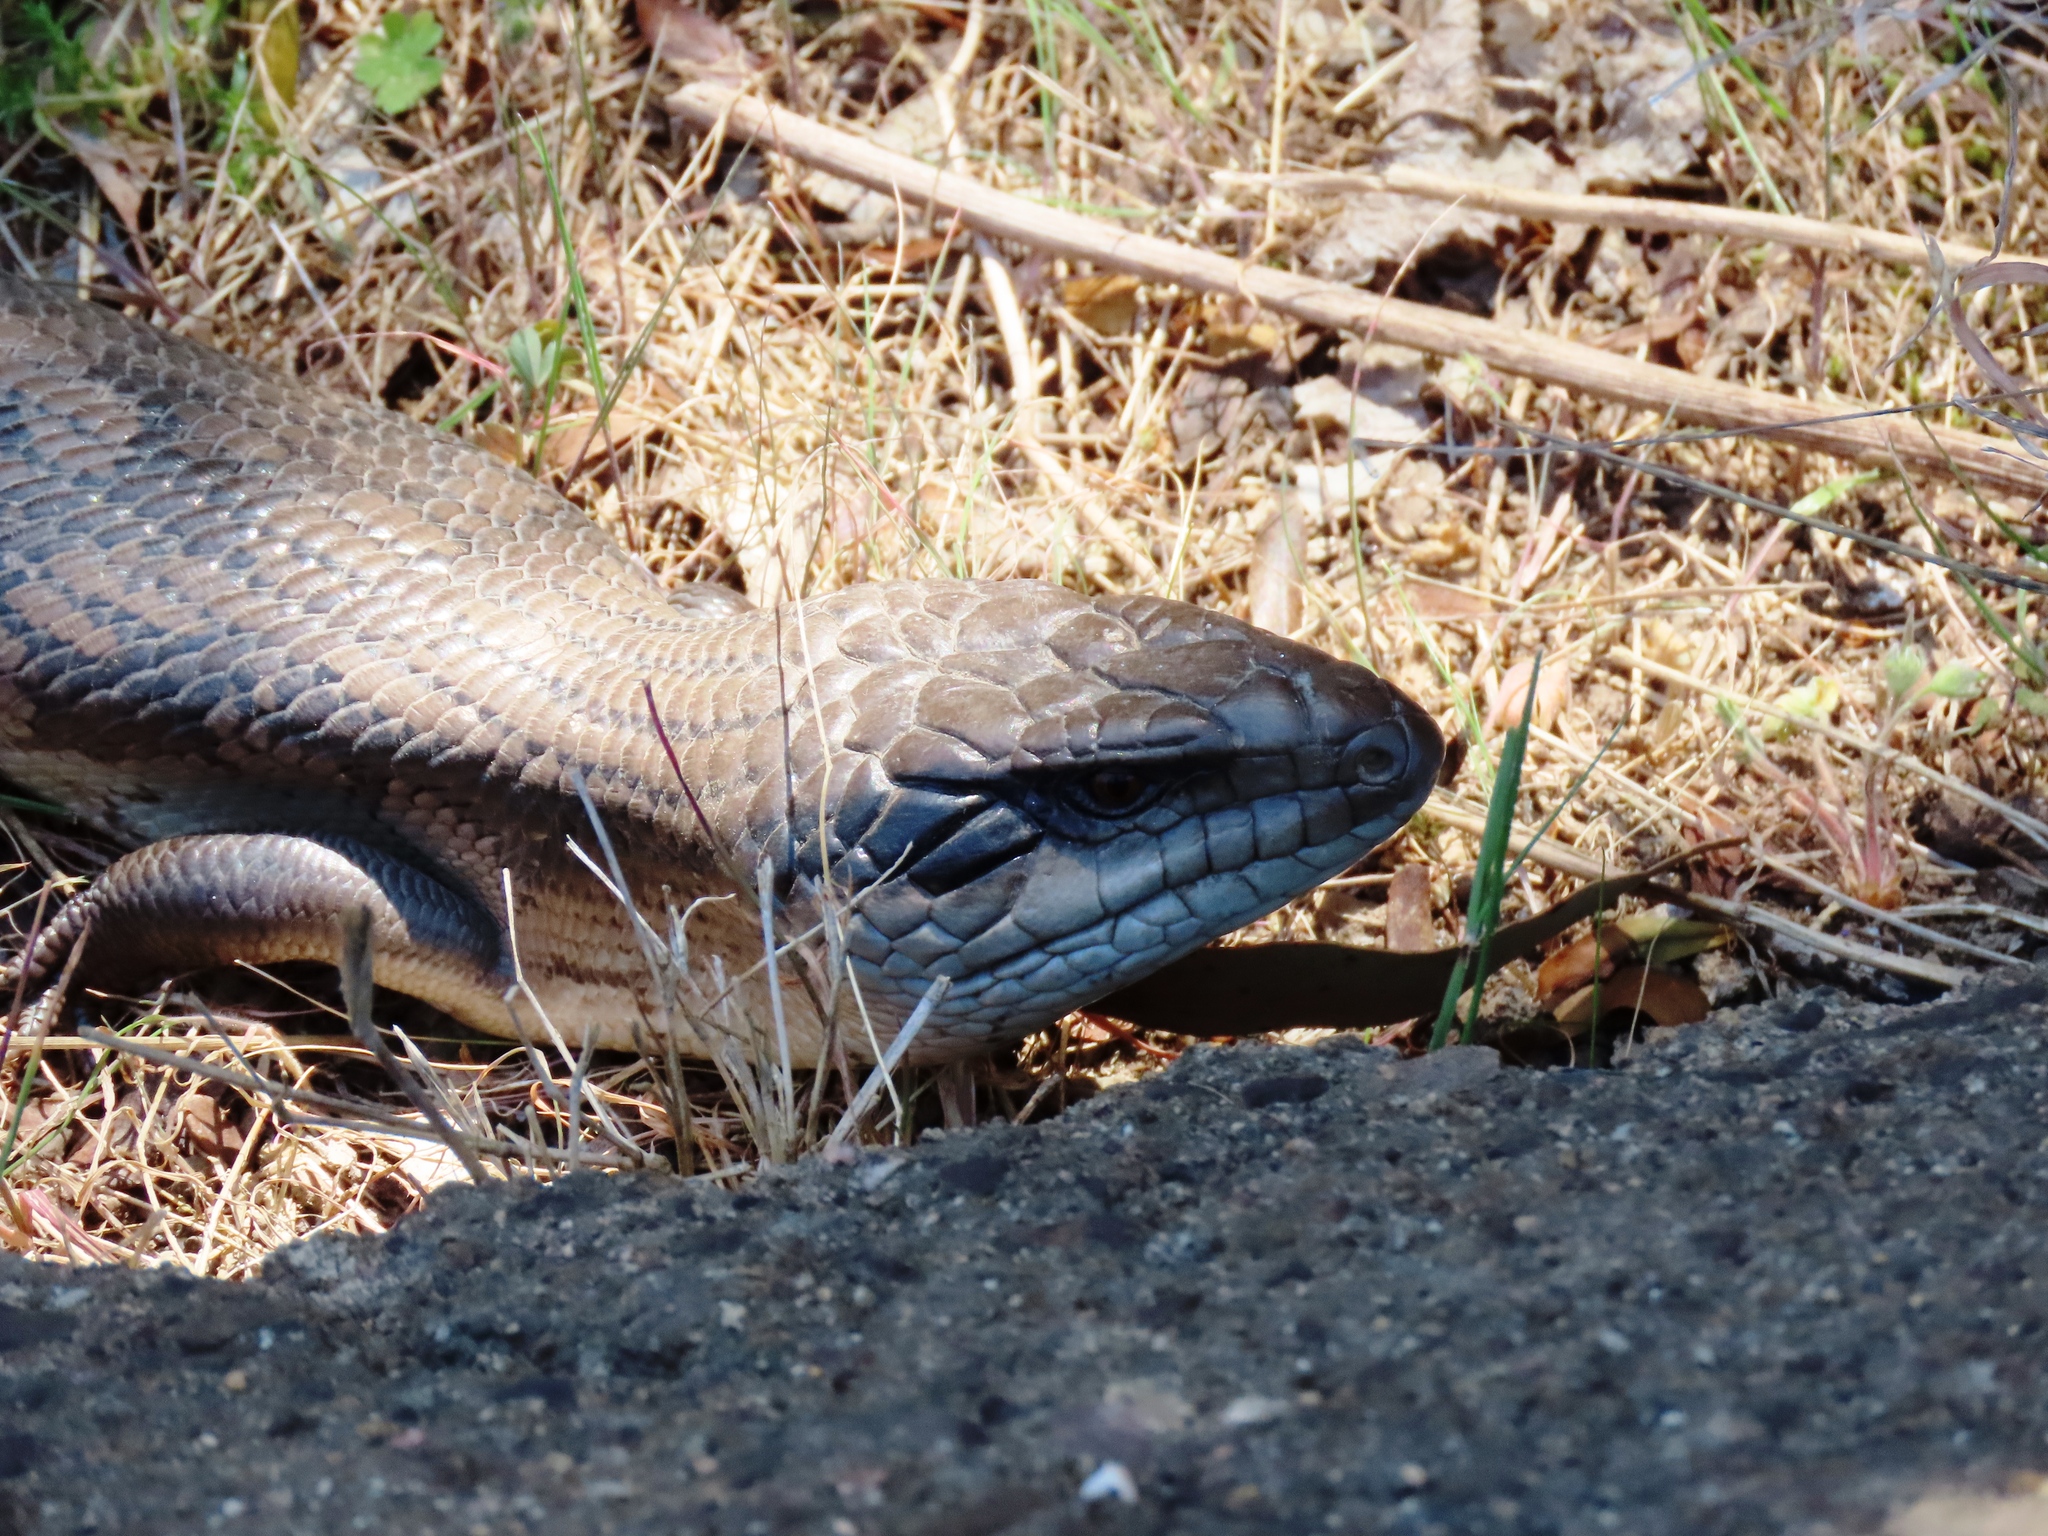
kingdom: Animalia
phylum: Chordata
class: Squamata
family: Scincidae
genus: Tiliqua
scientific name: Tiliqua scincoides
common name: Common bluetongue
